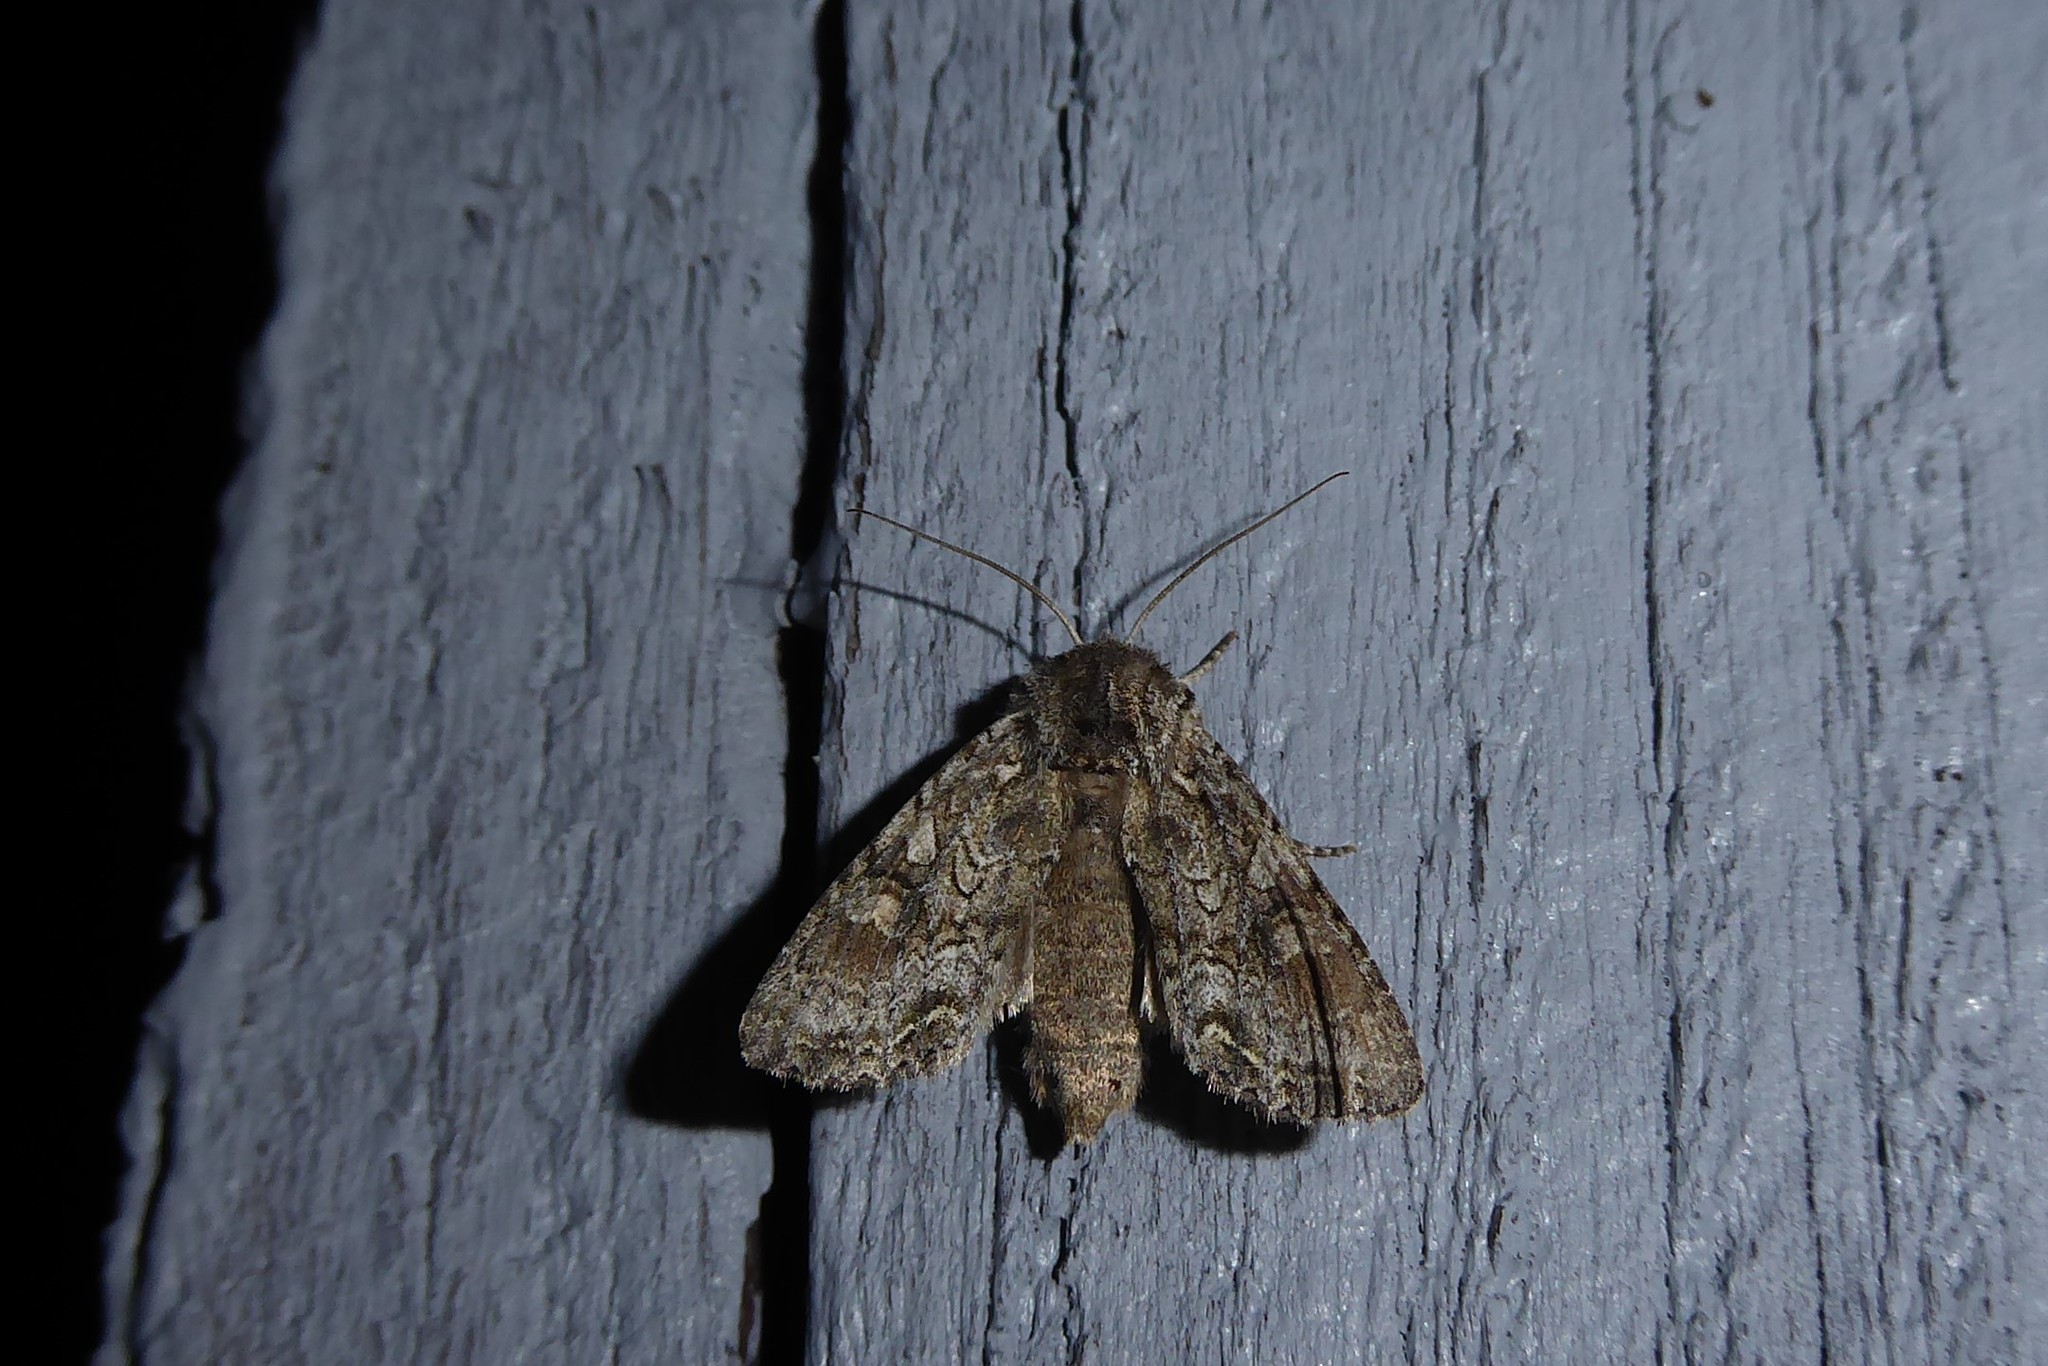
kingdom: Animalia
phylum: Arthropoda
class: Insecta
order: Lepidoptera
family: Noctuidae
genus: Ichneutica
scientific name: Ichneutica mutans
